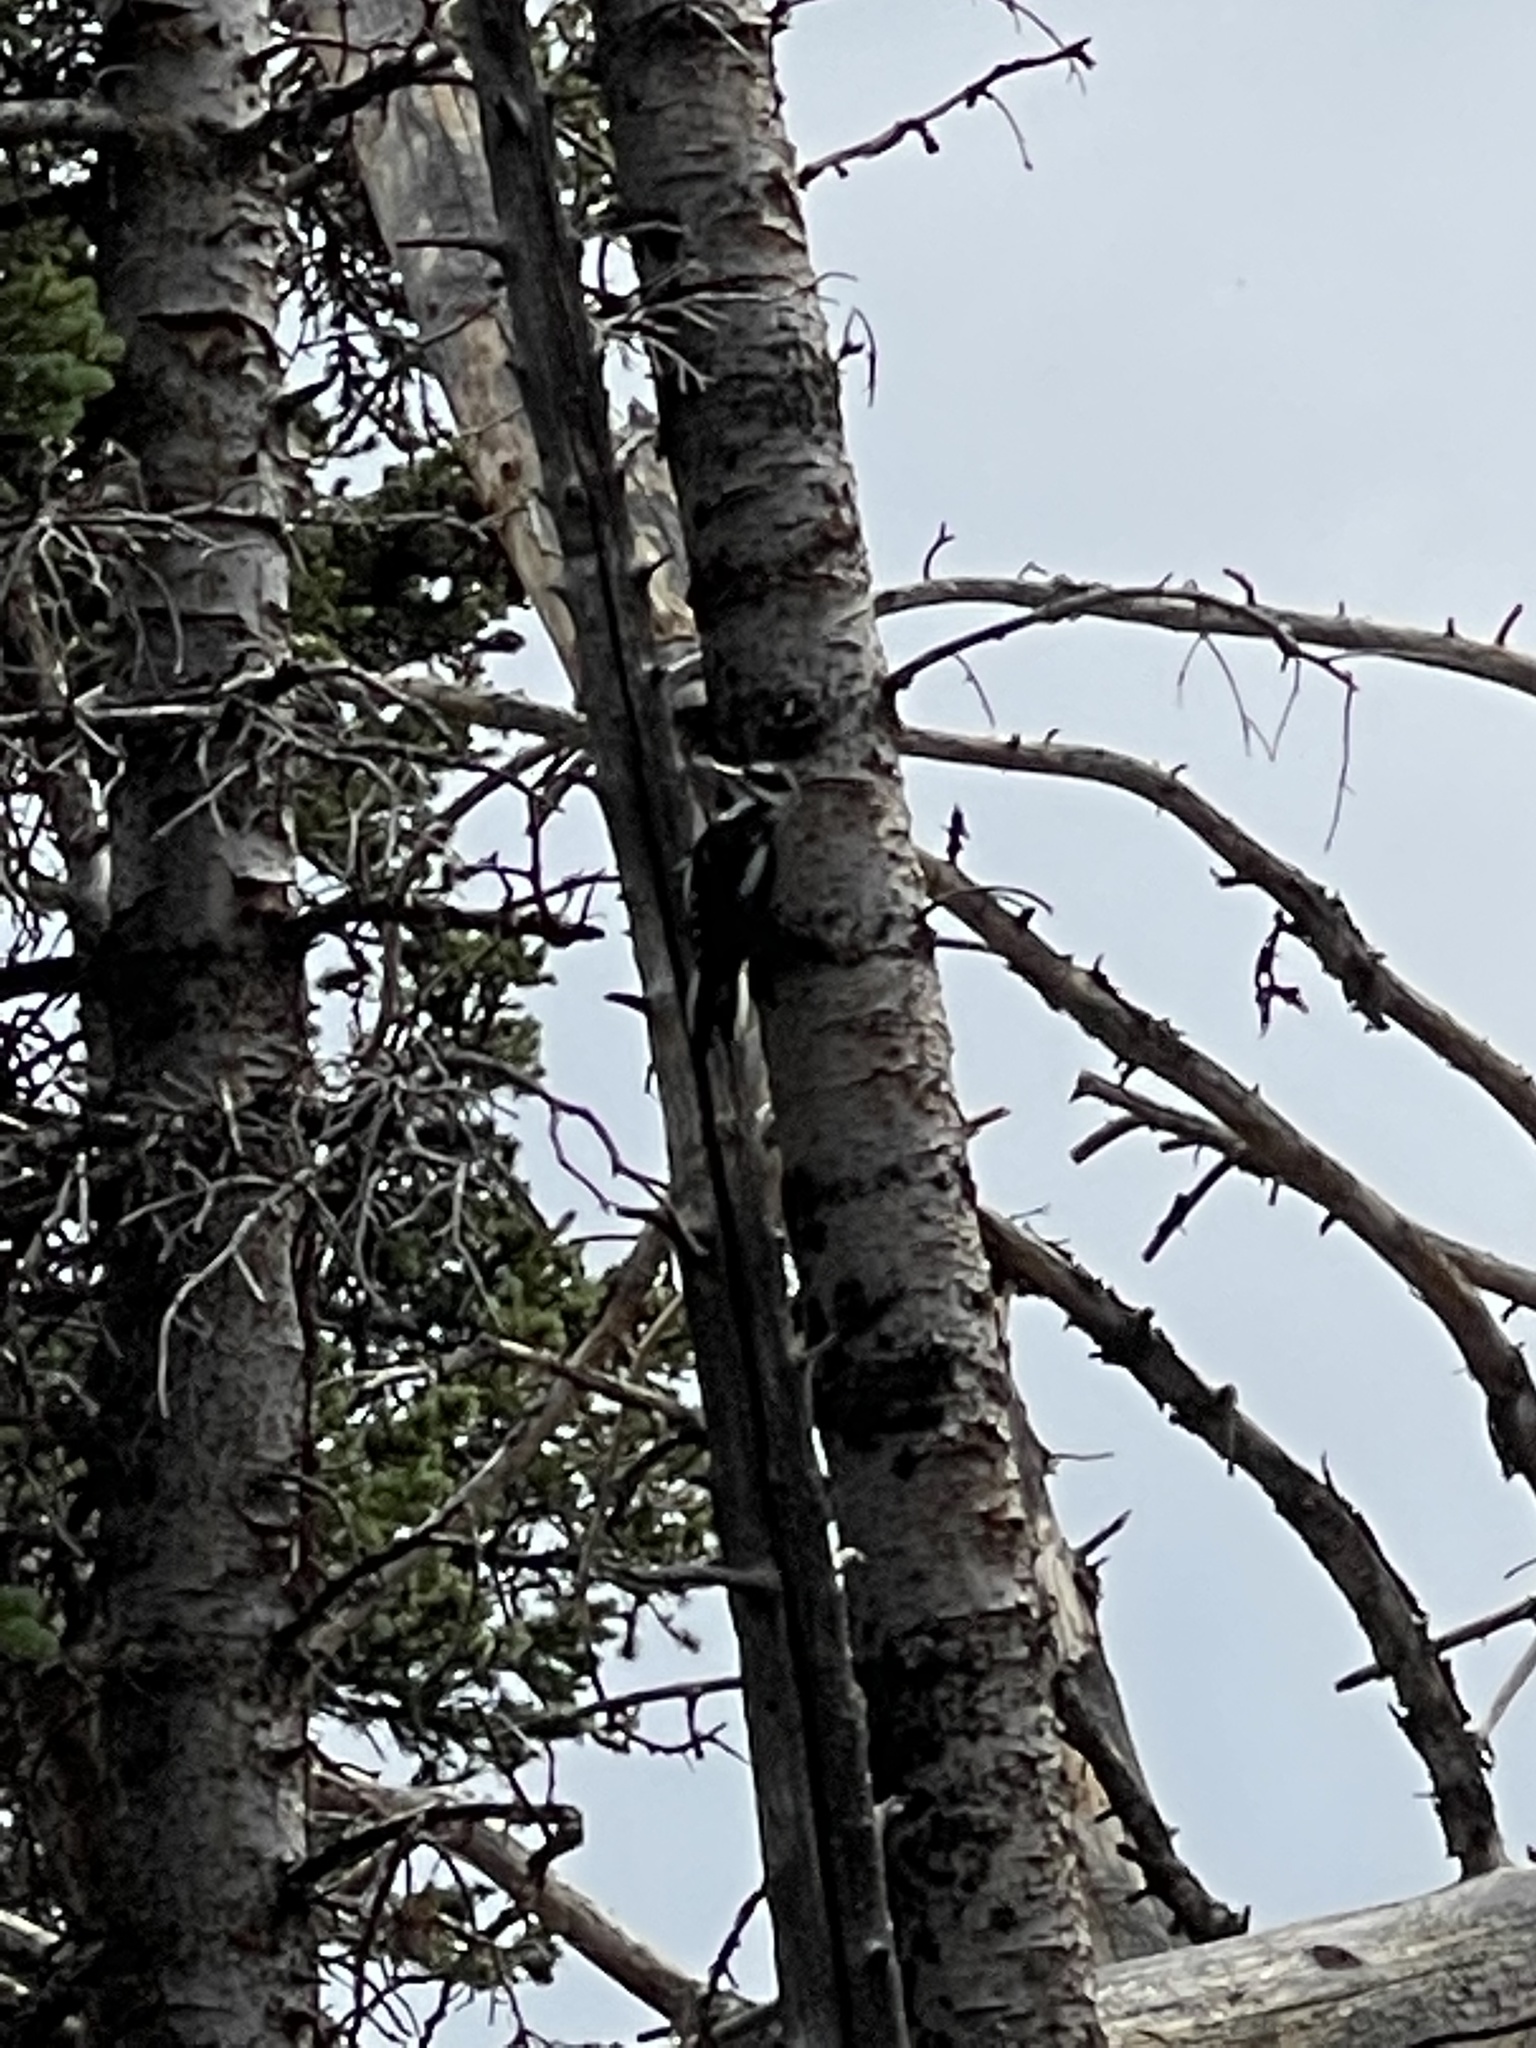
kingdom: Animalia
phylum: Chordata
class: Aves
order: Piciformes
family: Picidae
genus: Leuconotopicus
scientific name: Leuconotopicus villosus
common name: Hairy woodpecker
